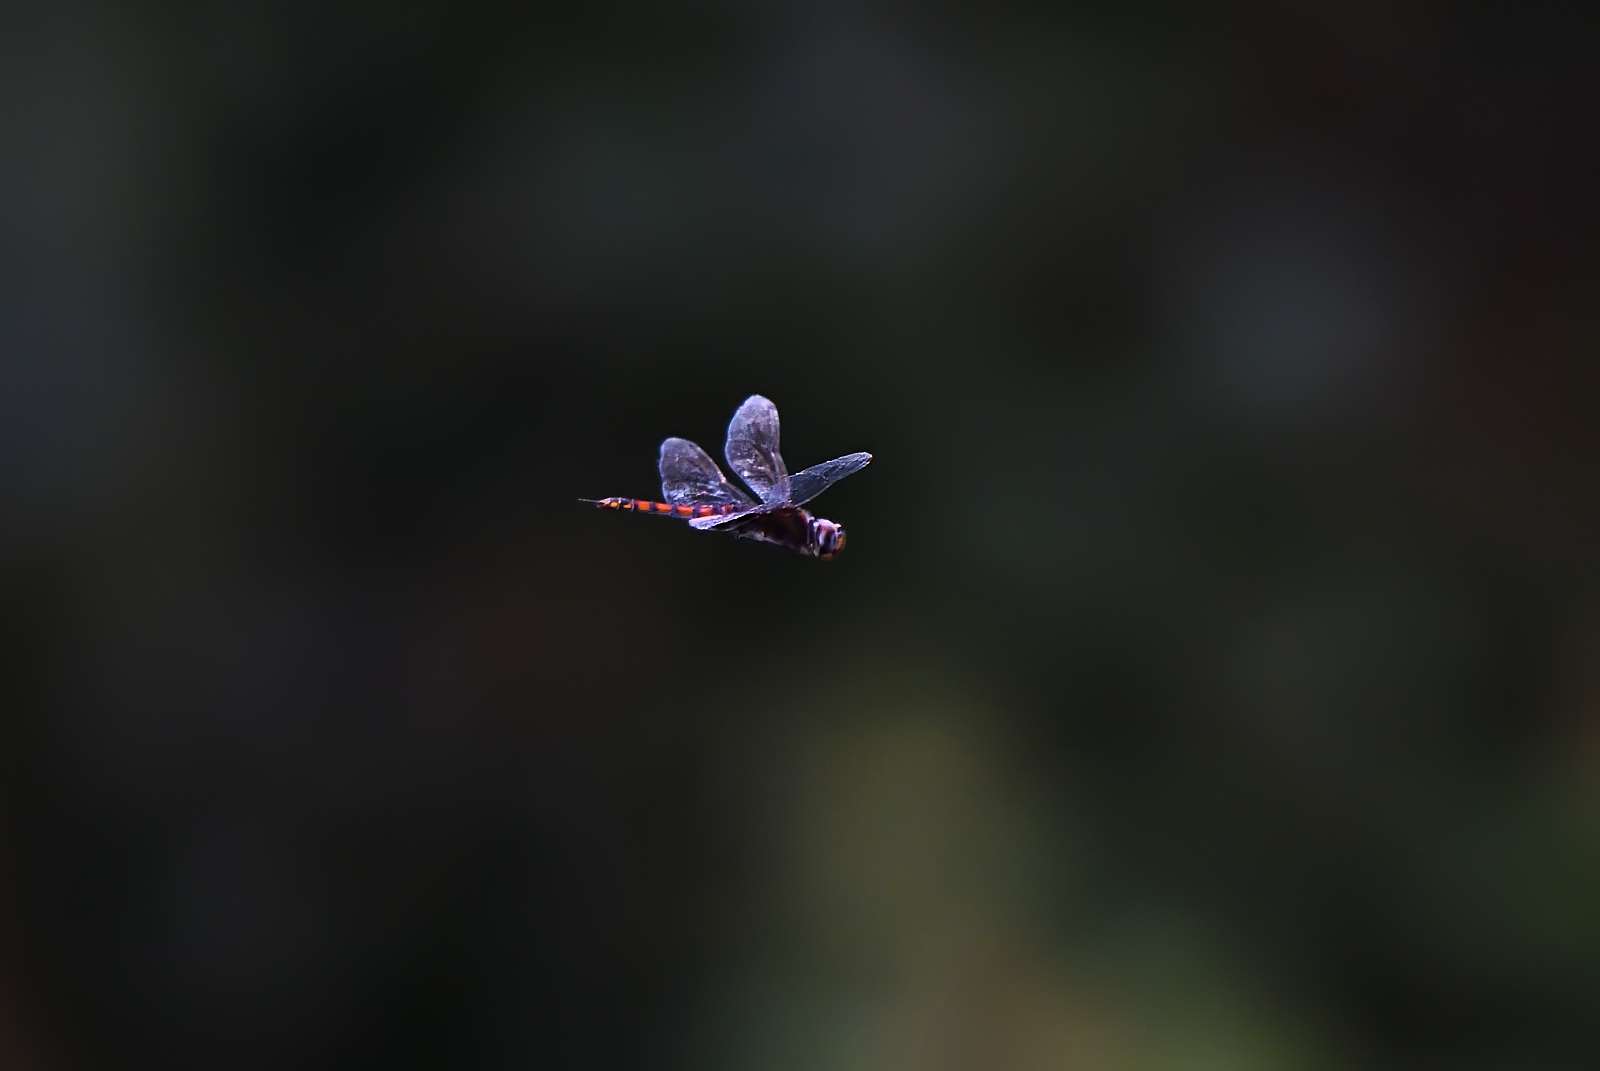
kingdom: Animalia
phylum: Arthropoda
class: Insecta
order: Odonata
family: Libellulidae
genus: Tramea
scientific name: Tramea limbata
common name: Ferruginous glider
